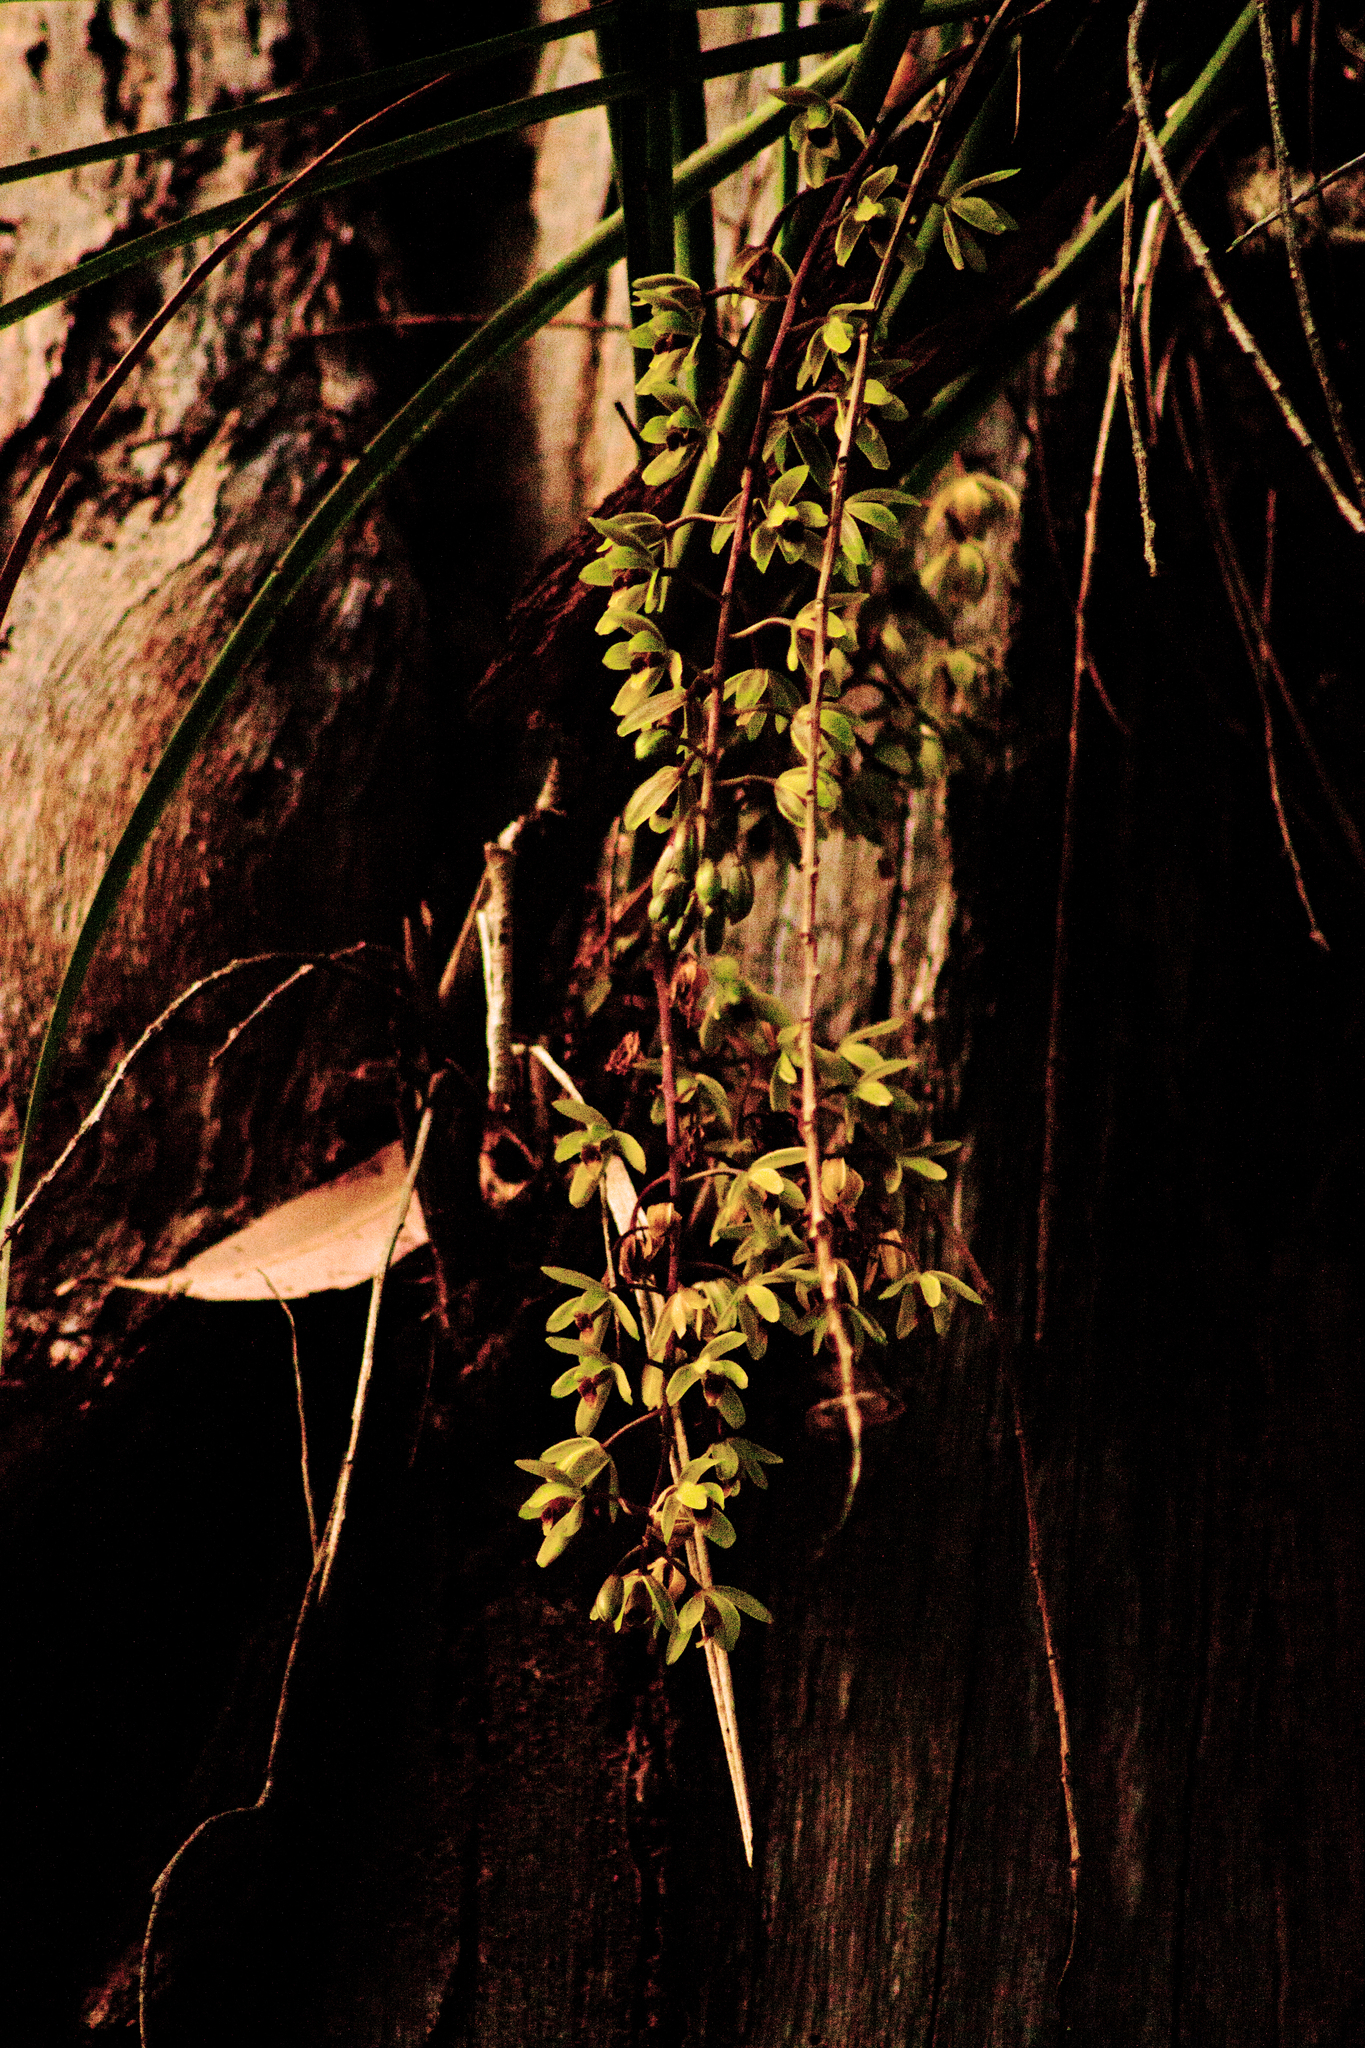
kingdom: Plantae
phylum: Tracheophyta
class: Liliopsida
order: Asparagales
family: Orchidaceae
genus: Cymbidium
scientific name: Cymbidium suave
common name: Snake orchid
